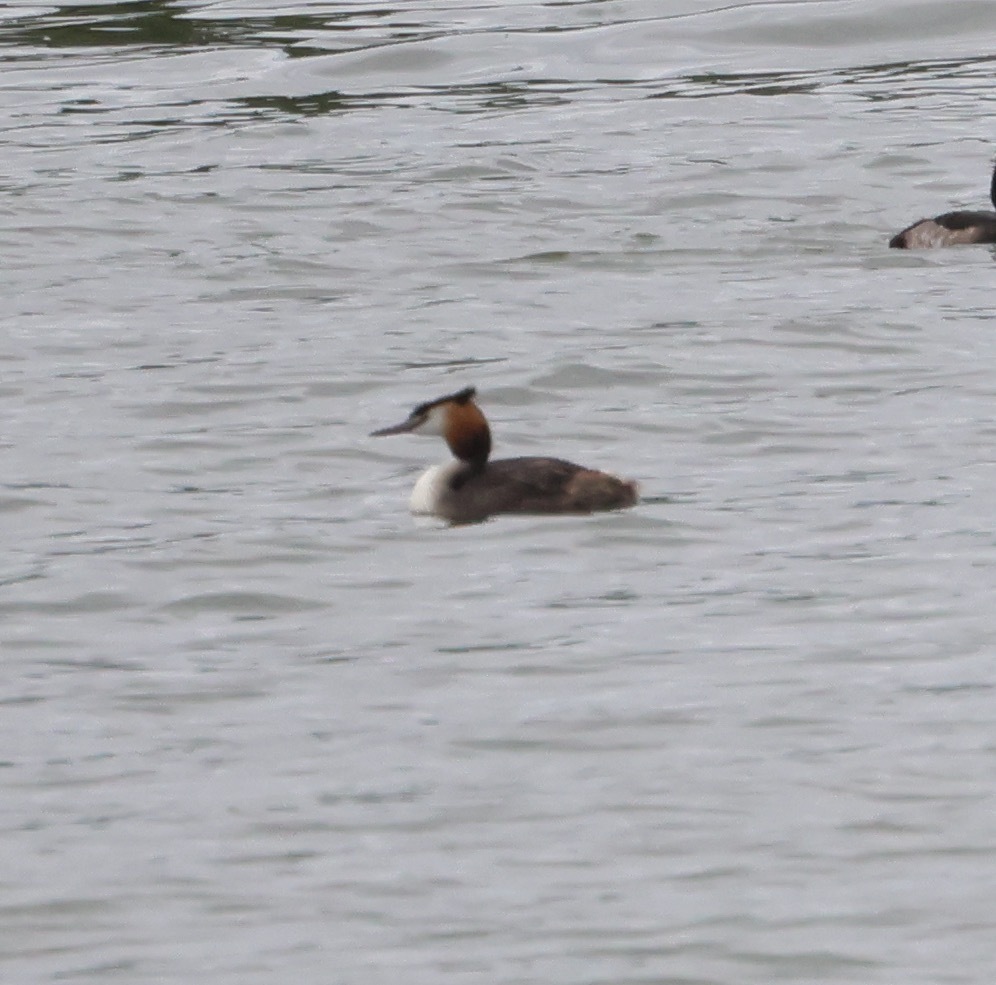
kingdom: Animalia
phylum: Chordata
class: Aves
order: Podicipediformes
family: Podicipedidae
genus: Podiceps
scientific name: Podiceps cristatus
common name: Great crested grebe
